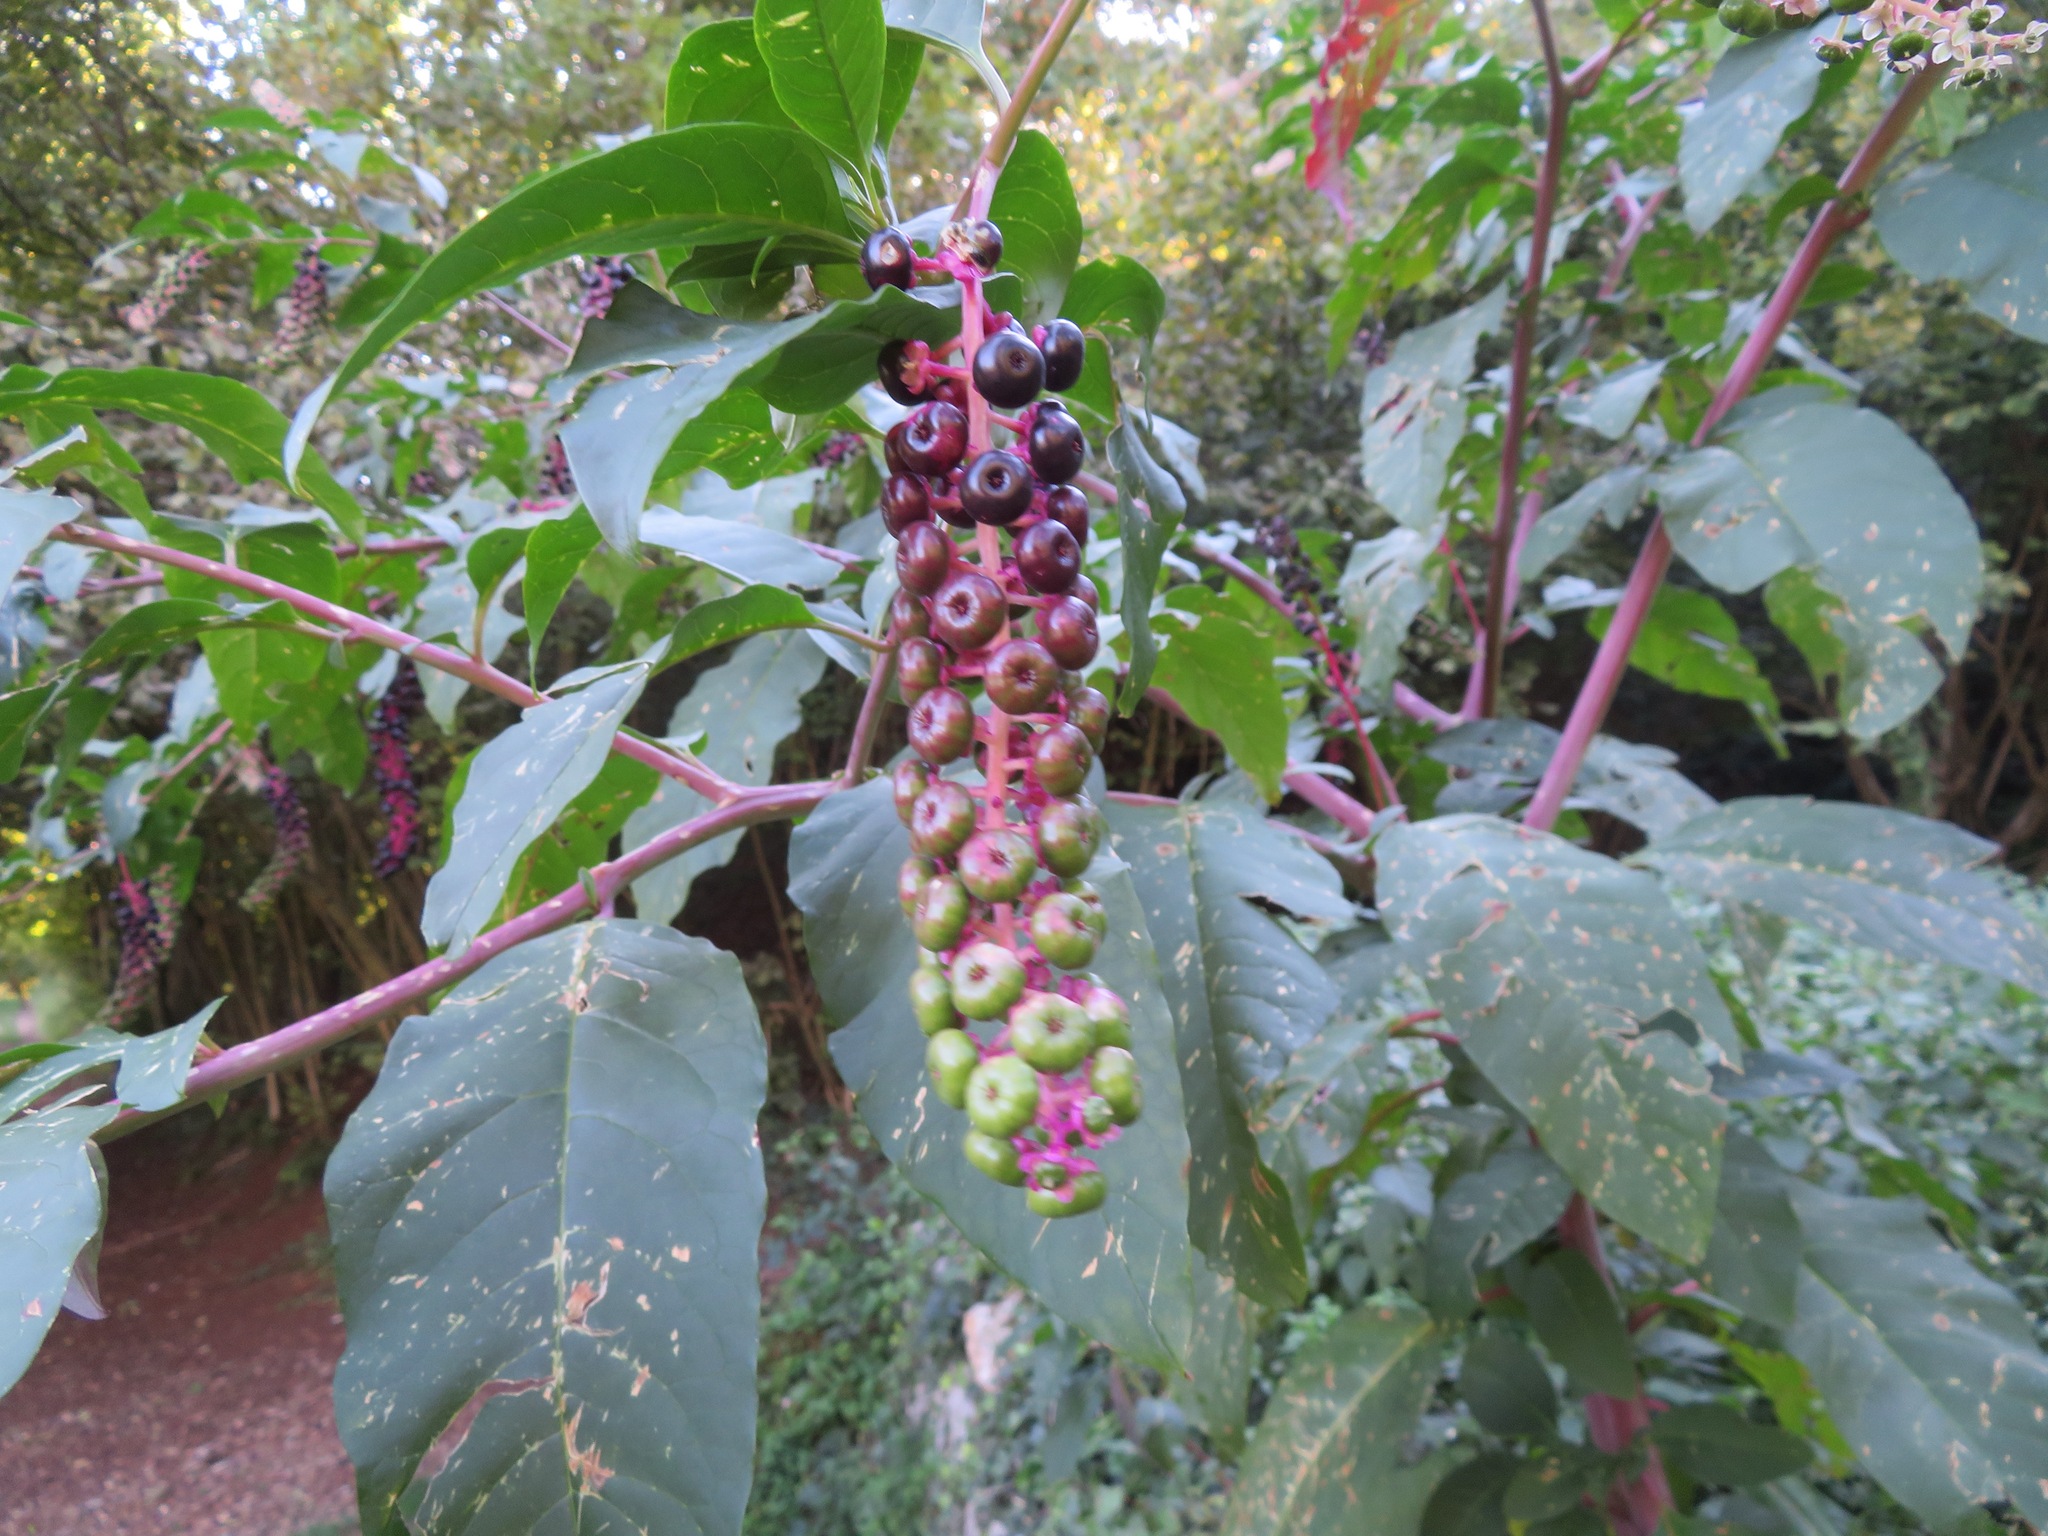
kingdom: Plantae
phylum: Tracheophyta
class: Magnoliopsida
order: Caryophyllales
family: Phytolaccaceae
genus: Phytolacca
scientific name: Phytolacca americana
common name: American pokeweed
